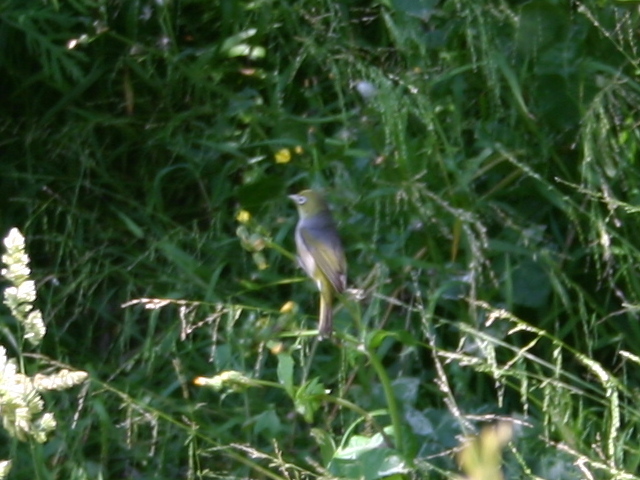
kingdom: Animalia
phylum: Chordata
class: Aves
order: Passeriformes
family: Zosteropidae
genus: Zosterops
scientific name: Zosterops lateralis
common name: Silvereye
